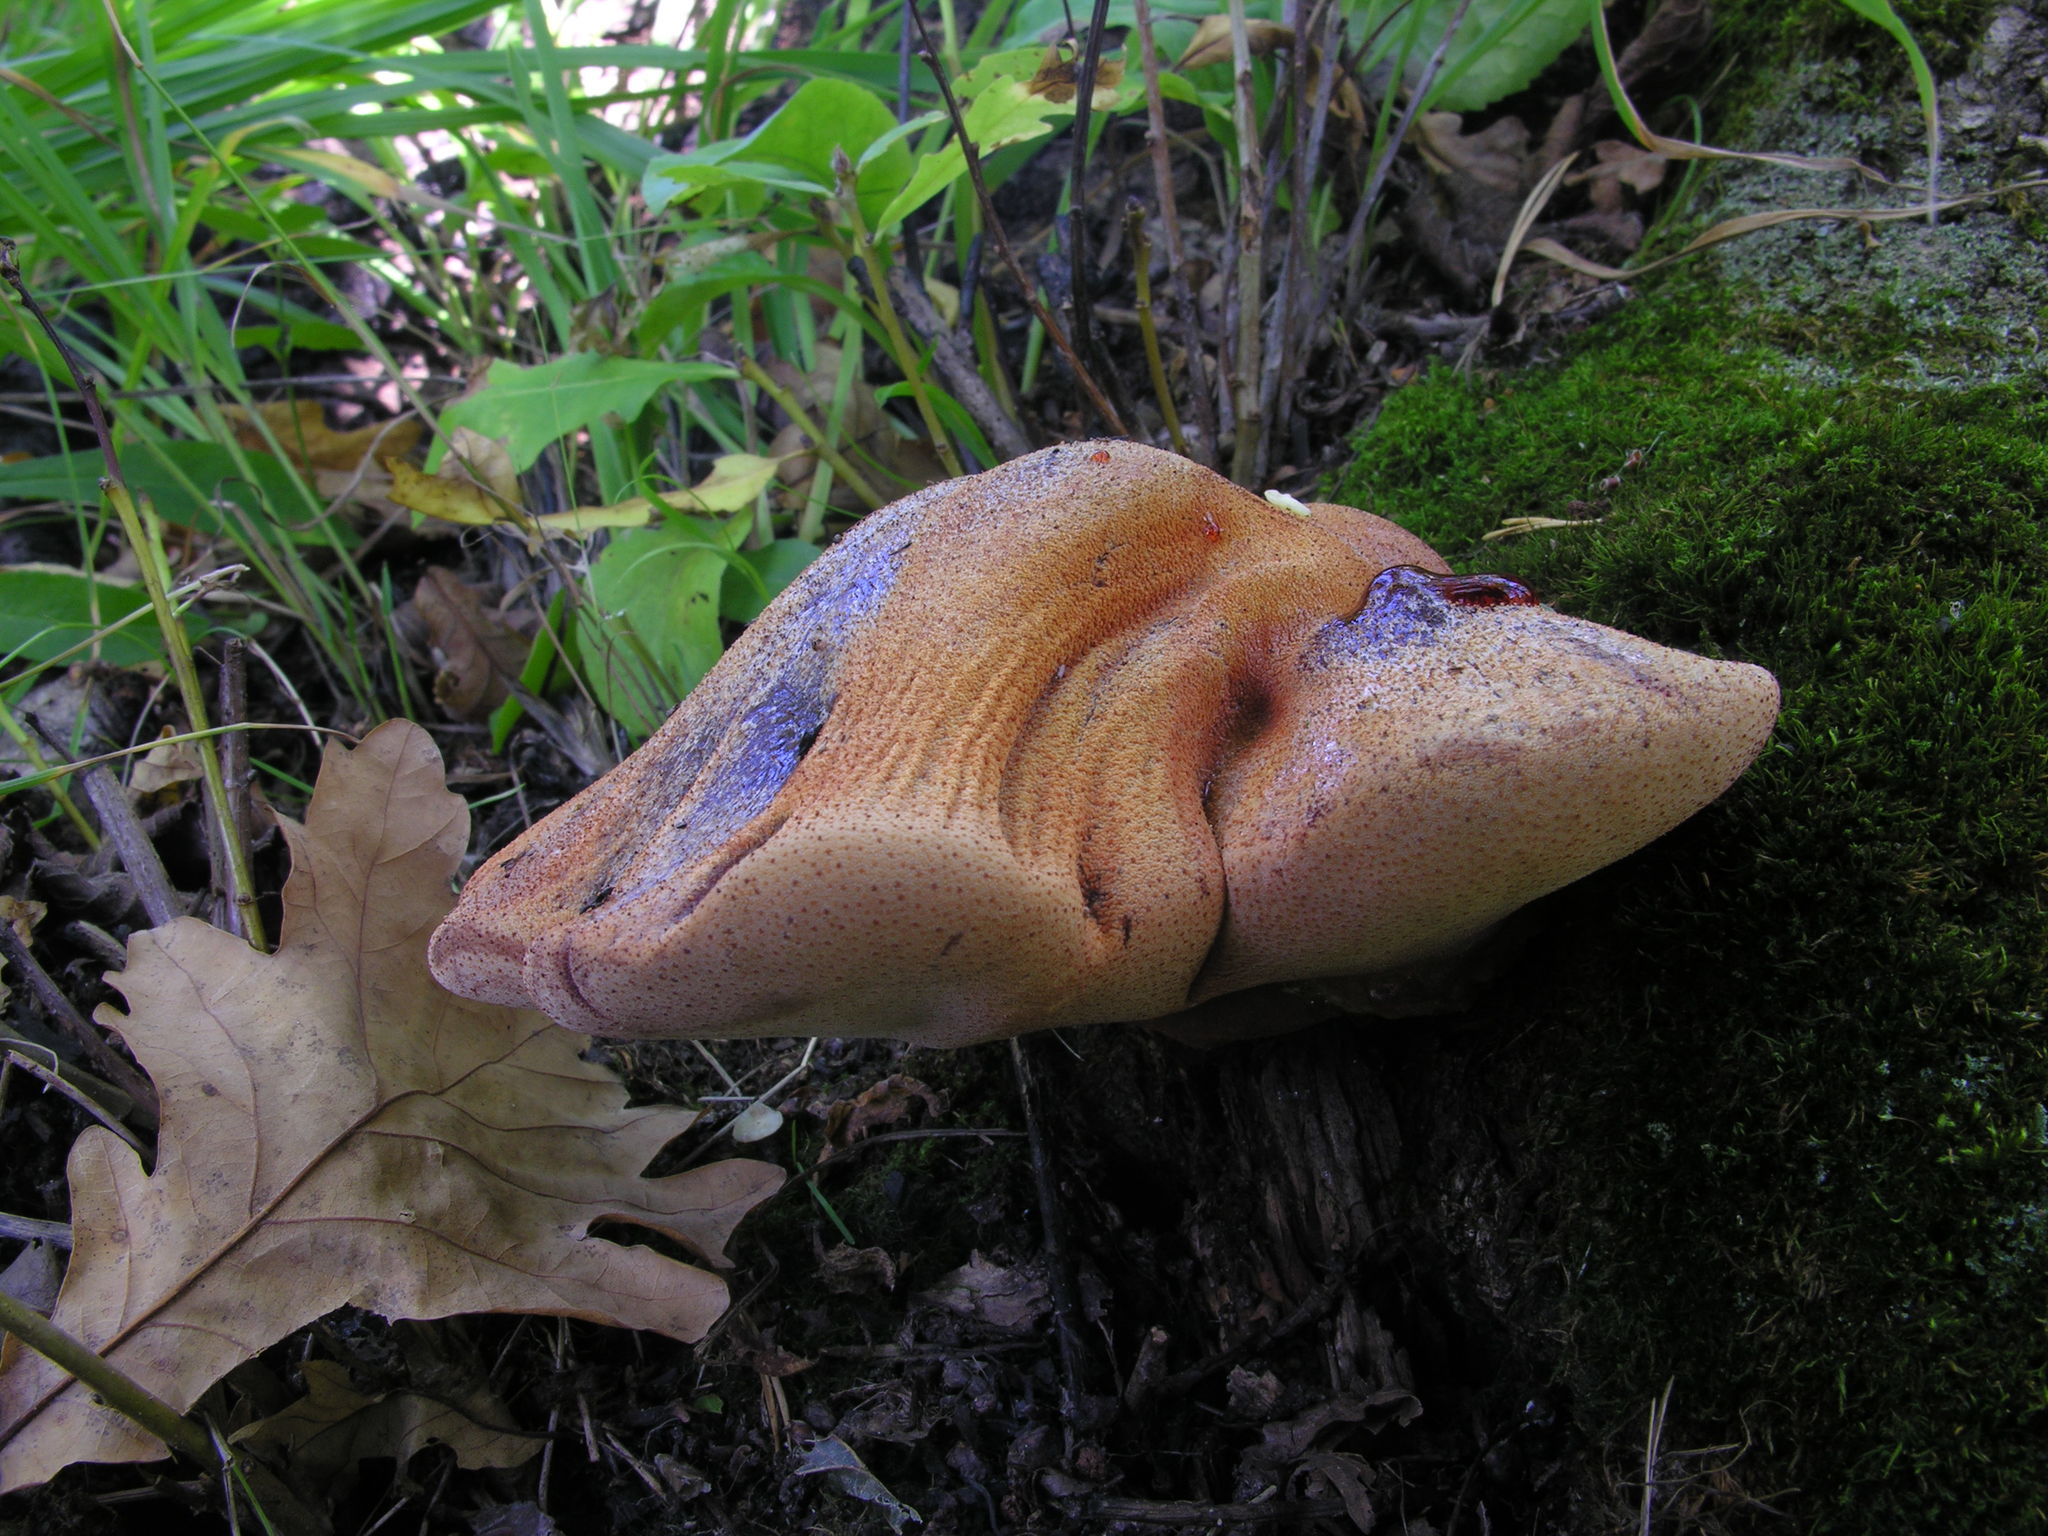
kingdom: Fungi
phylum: Basidiomycota
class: Agaricomycetes
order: Agaricales
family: Fistulinaceae
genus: Fistulina
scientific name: Fistulina hepatica
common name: Beef-steak fungus
